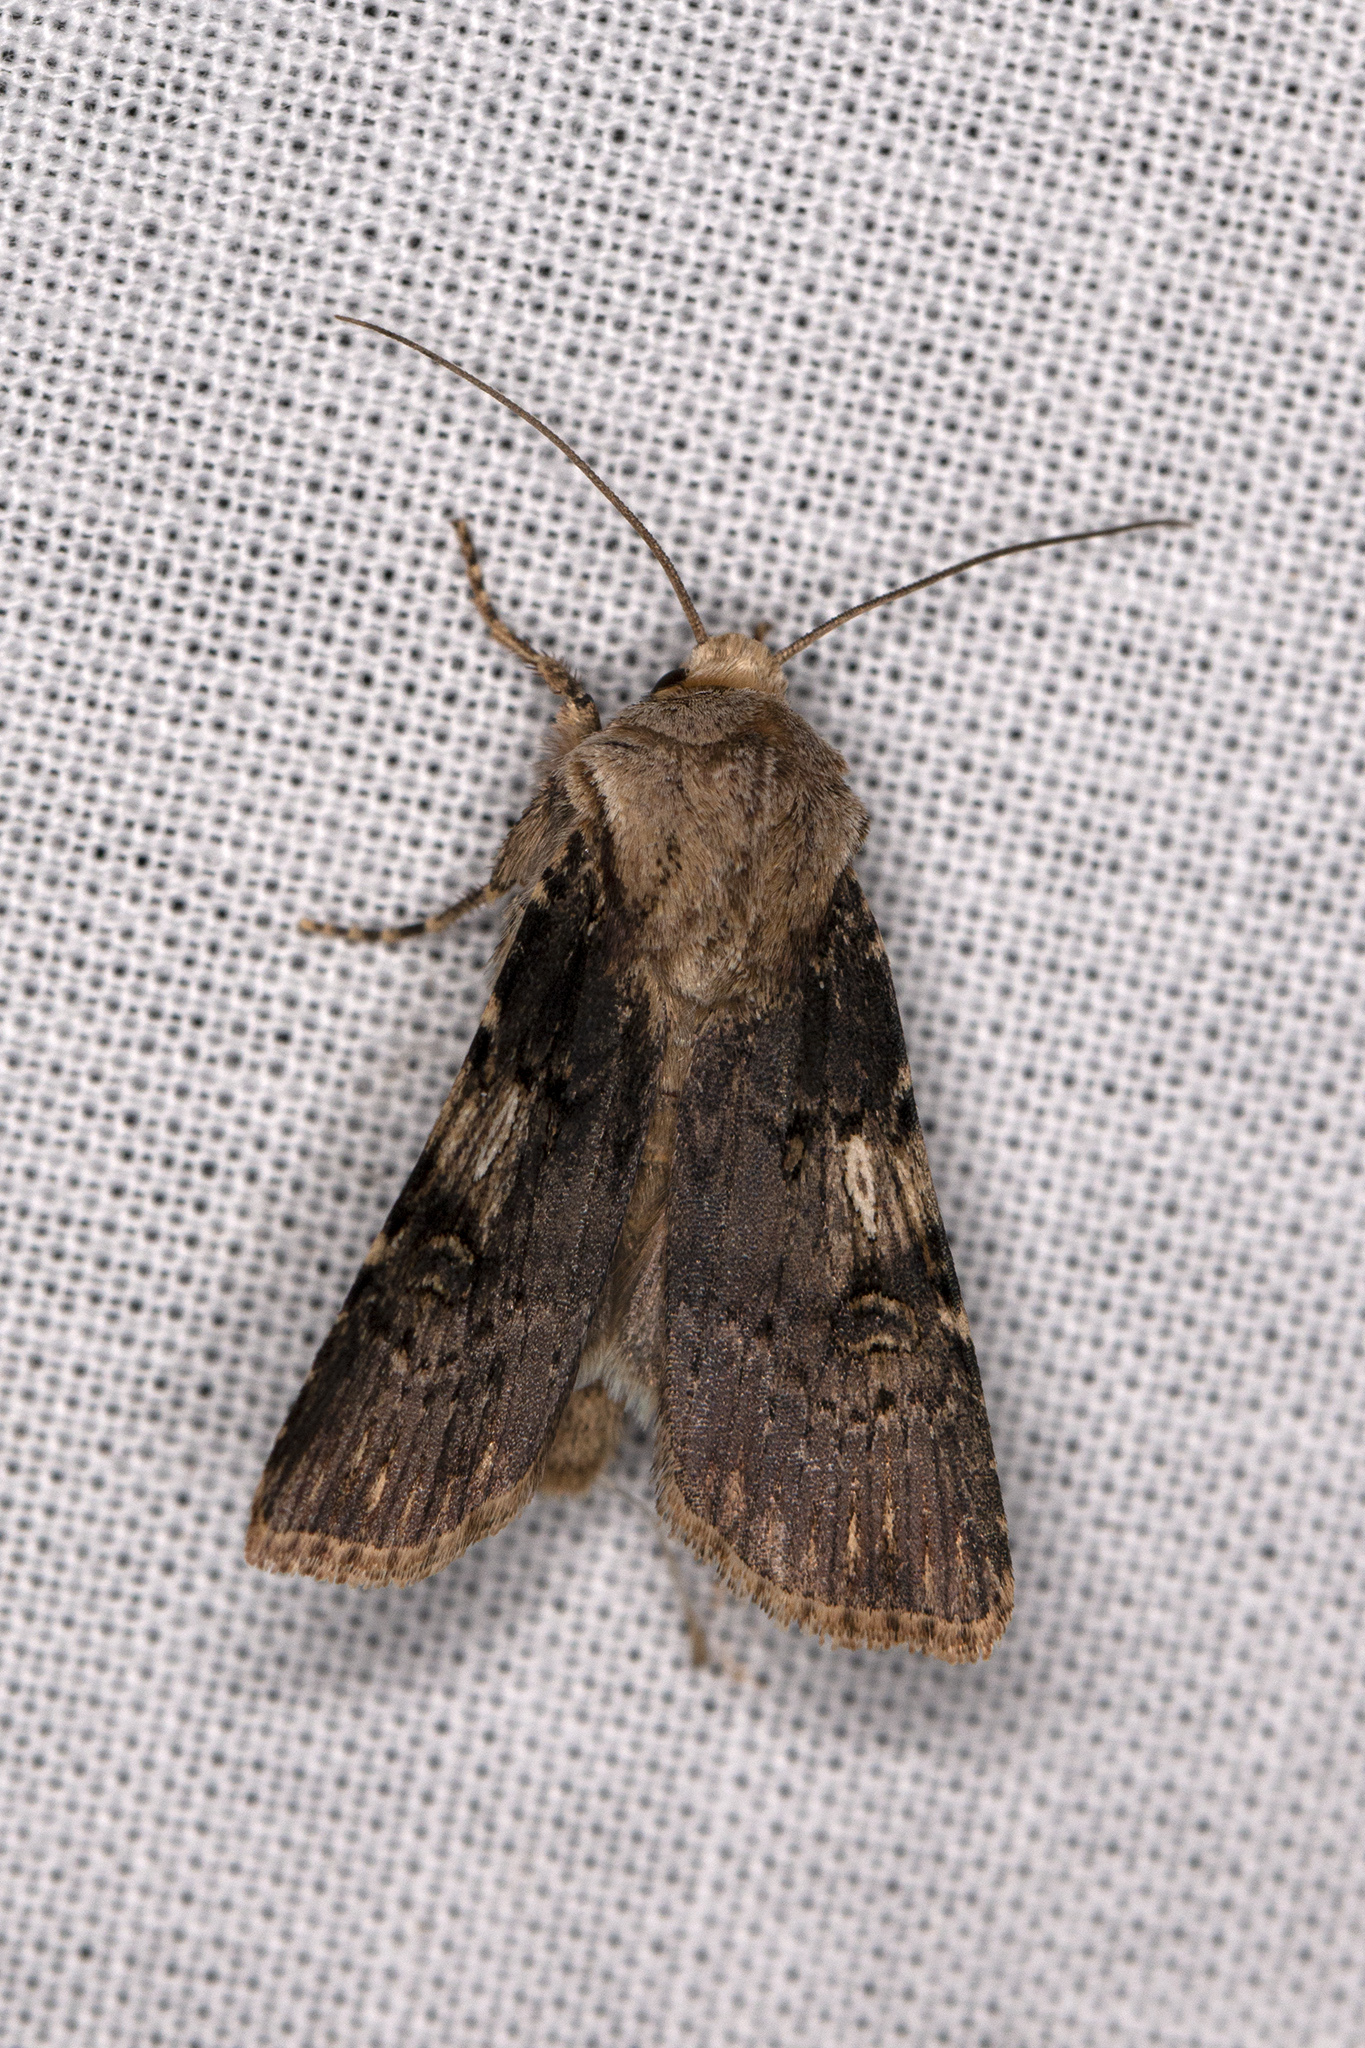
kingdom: Animalia
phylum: Arthropoda
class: Insecta
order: Lepidoptera
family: Noctuidae
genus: Agrotis
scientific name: Agrotis puta
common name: Shuttle-shaped dart
